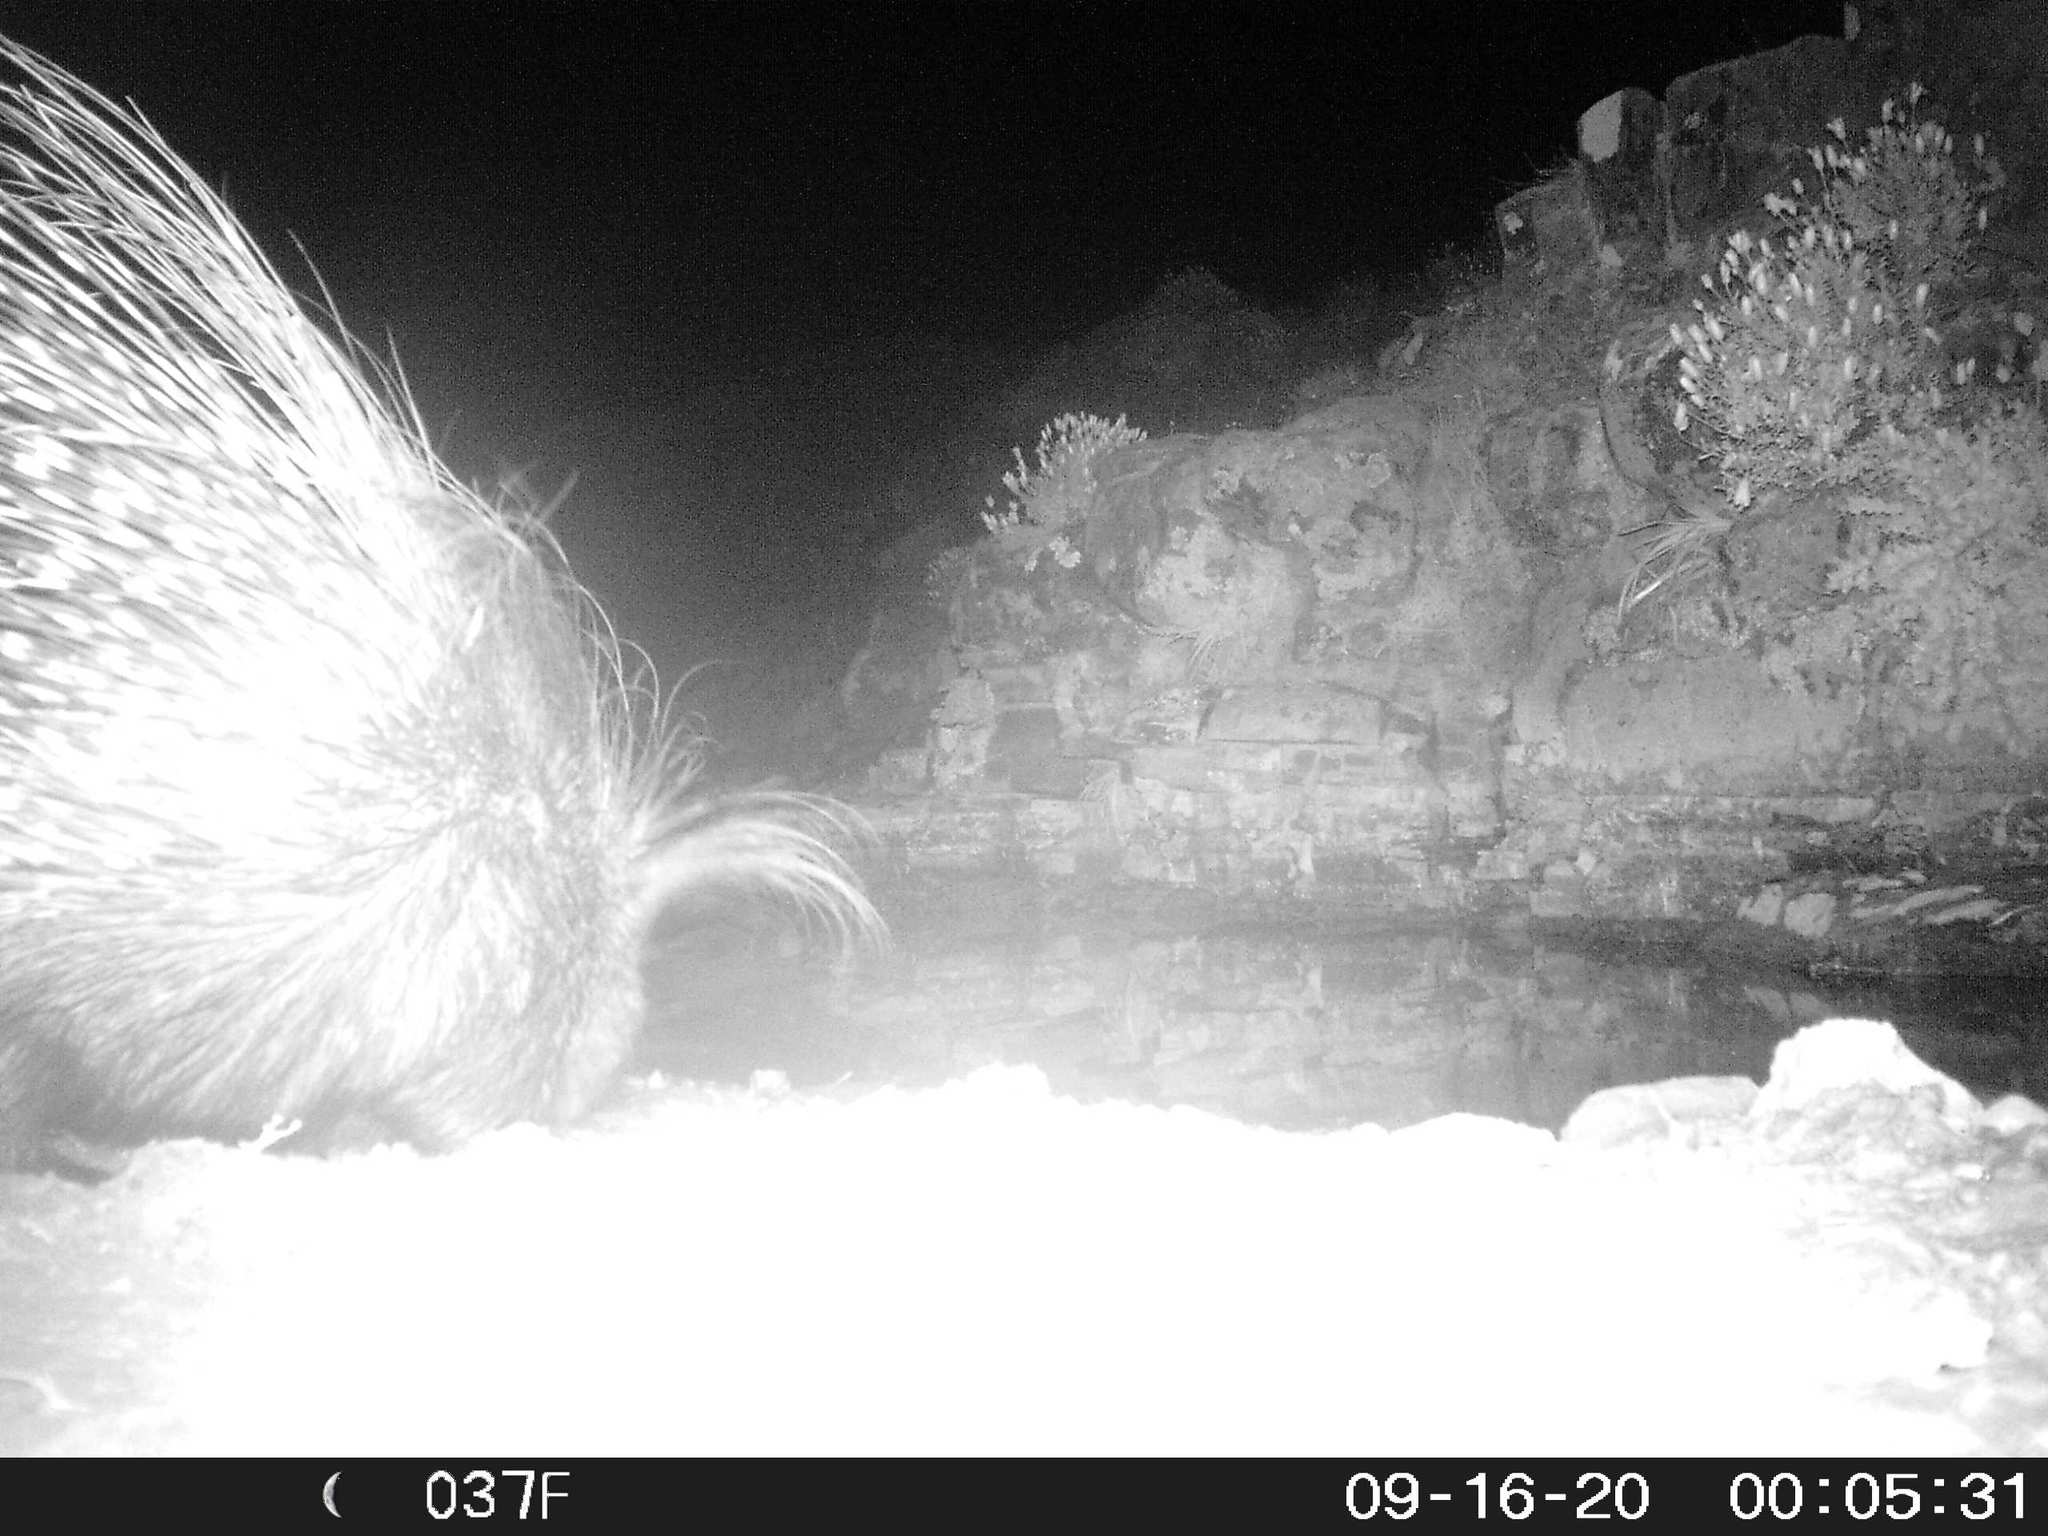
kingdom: Animalia
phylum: Chordata
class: Mammalia
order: Rodentia
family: Hystricidae
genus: Hystrix
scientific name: Hystrix africaeaustralis
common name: Cape porcupine
